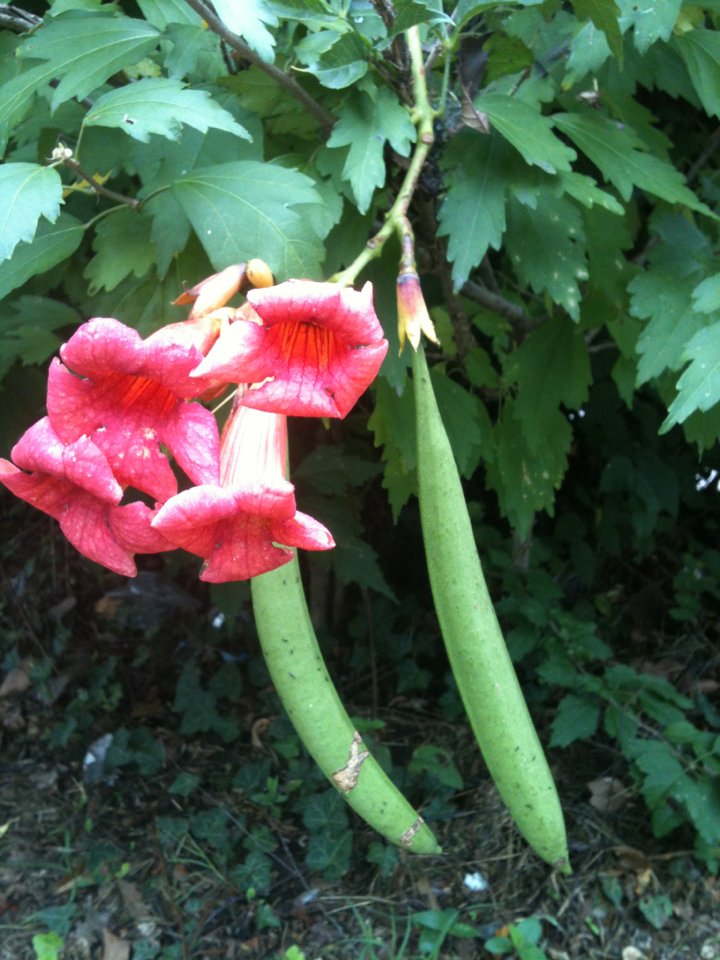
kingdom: Plantae
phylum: Tracheophyta
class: Magnoliopsida
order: Lamiales
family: Bignoniaceae
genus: Campsis
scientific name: Campsis radicans
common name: Trumpet-creeper
